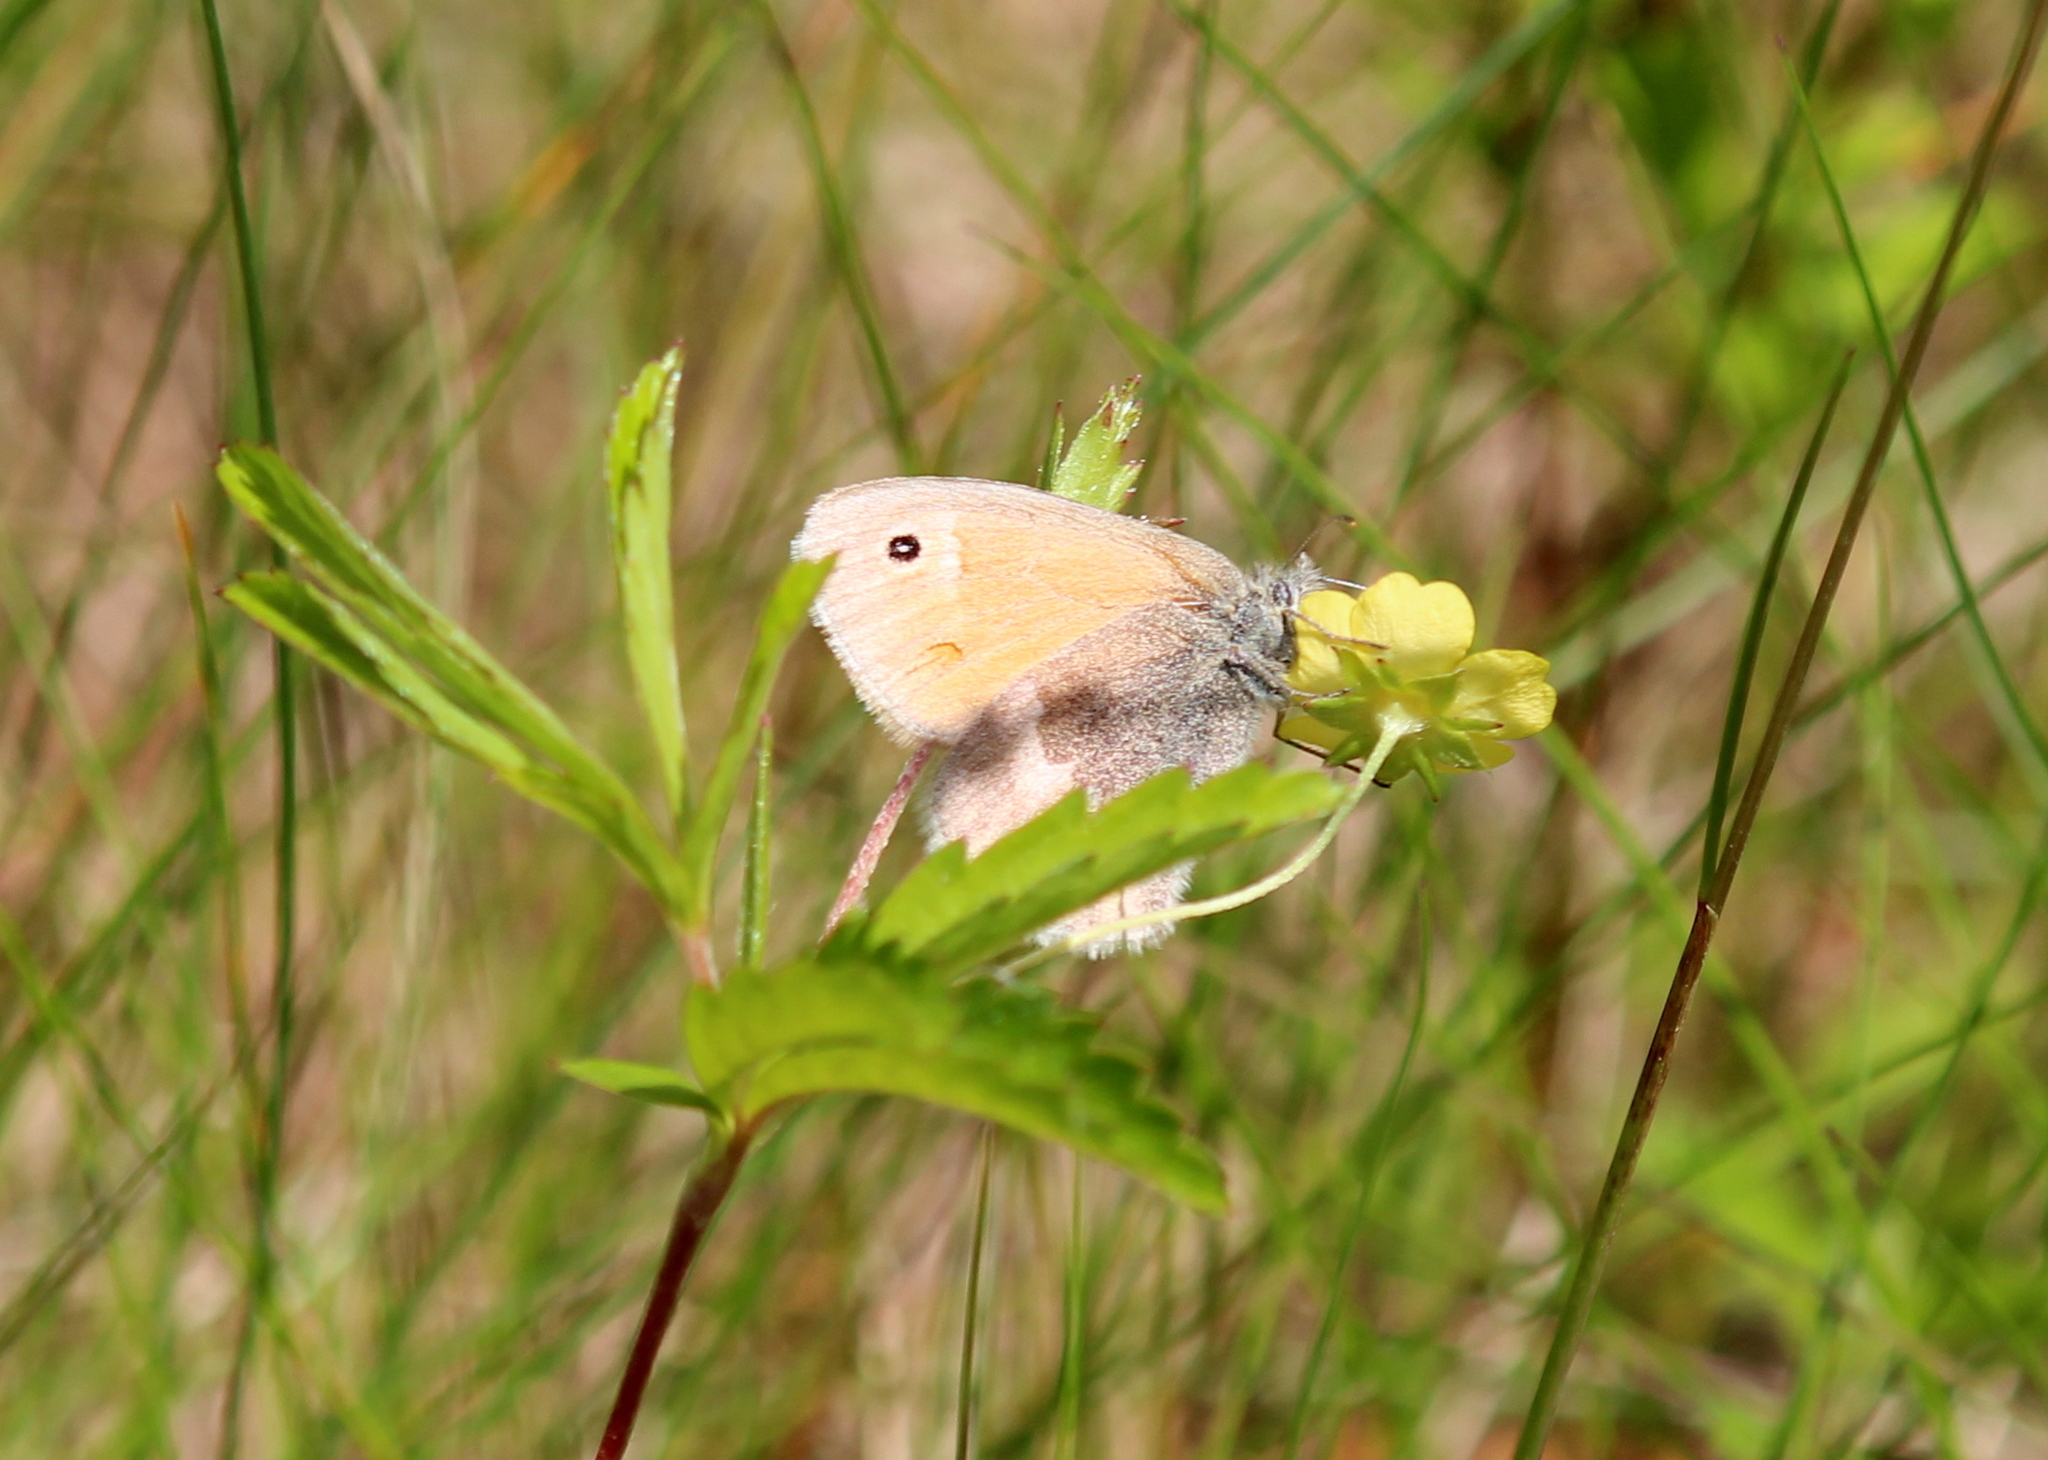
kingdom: Animalia
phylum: Arthropoda
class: Insecta
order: Lepidoptera
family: Nymphalidae
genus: Coenonympha
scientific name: Coenonympha california
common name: Common ringlet
